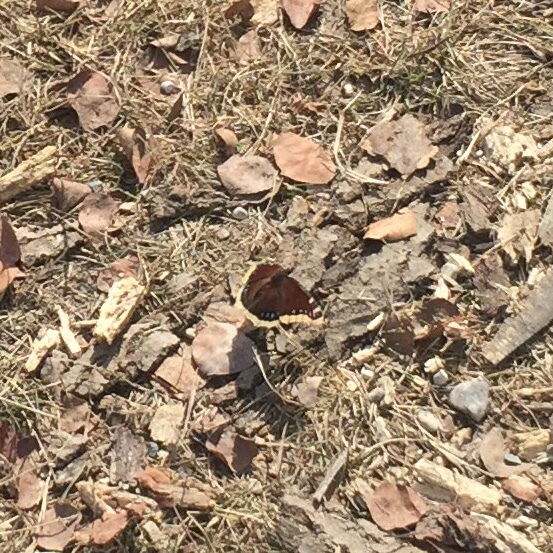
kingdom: Animalia
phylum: Arthropoda
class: Insecta
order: Lepidoptera
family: Nymphalidae
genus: Nymphalis
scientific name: Nymphalis antiopa
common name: Camberwell beauty
